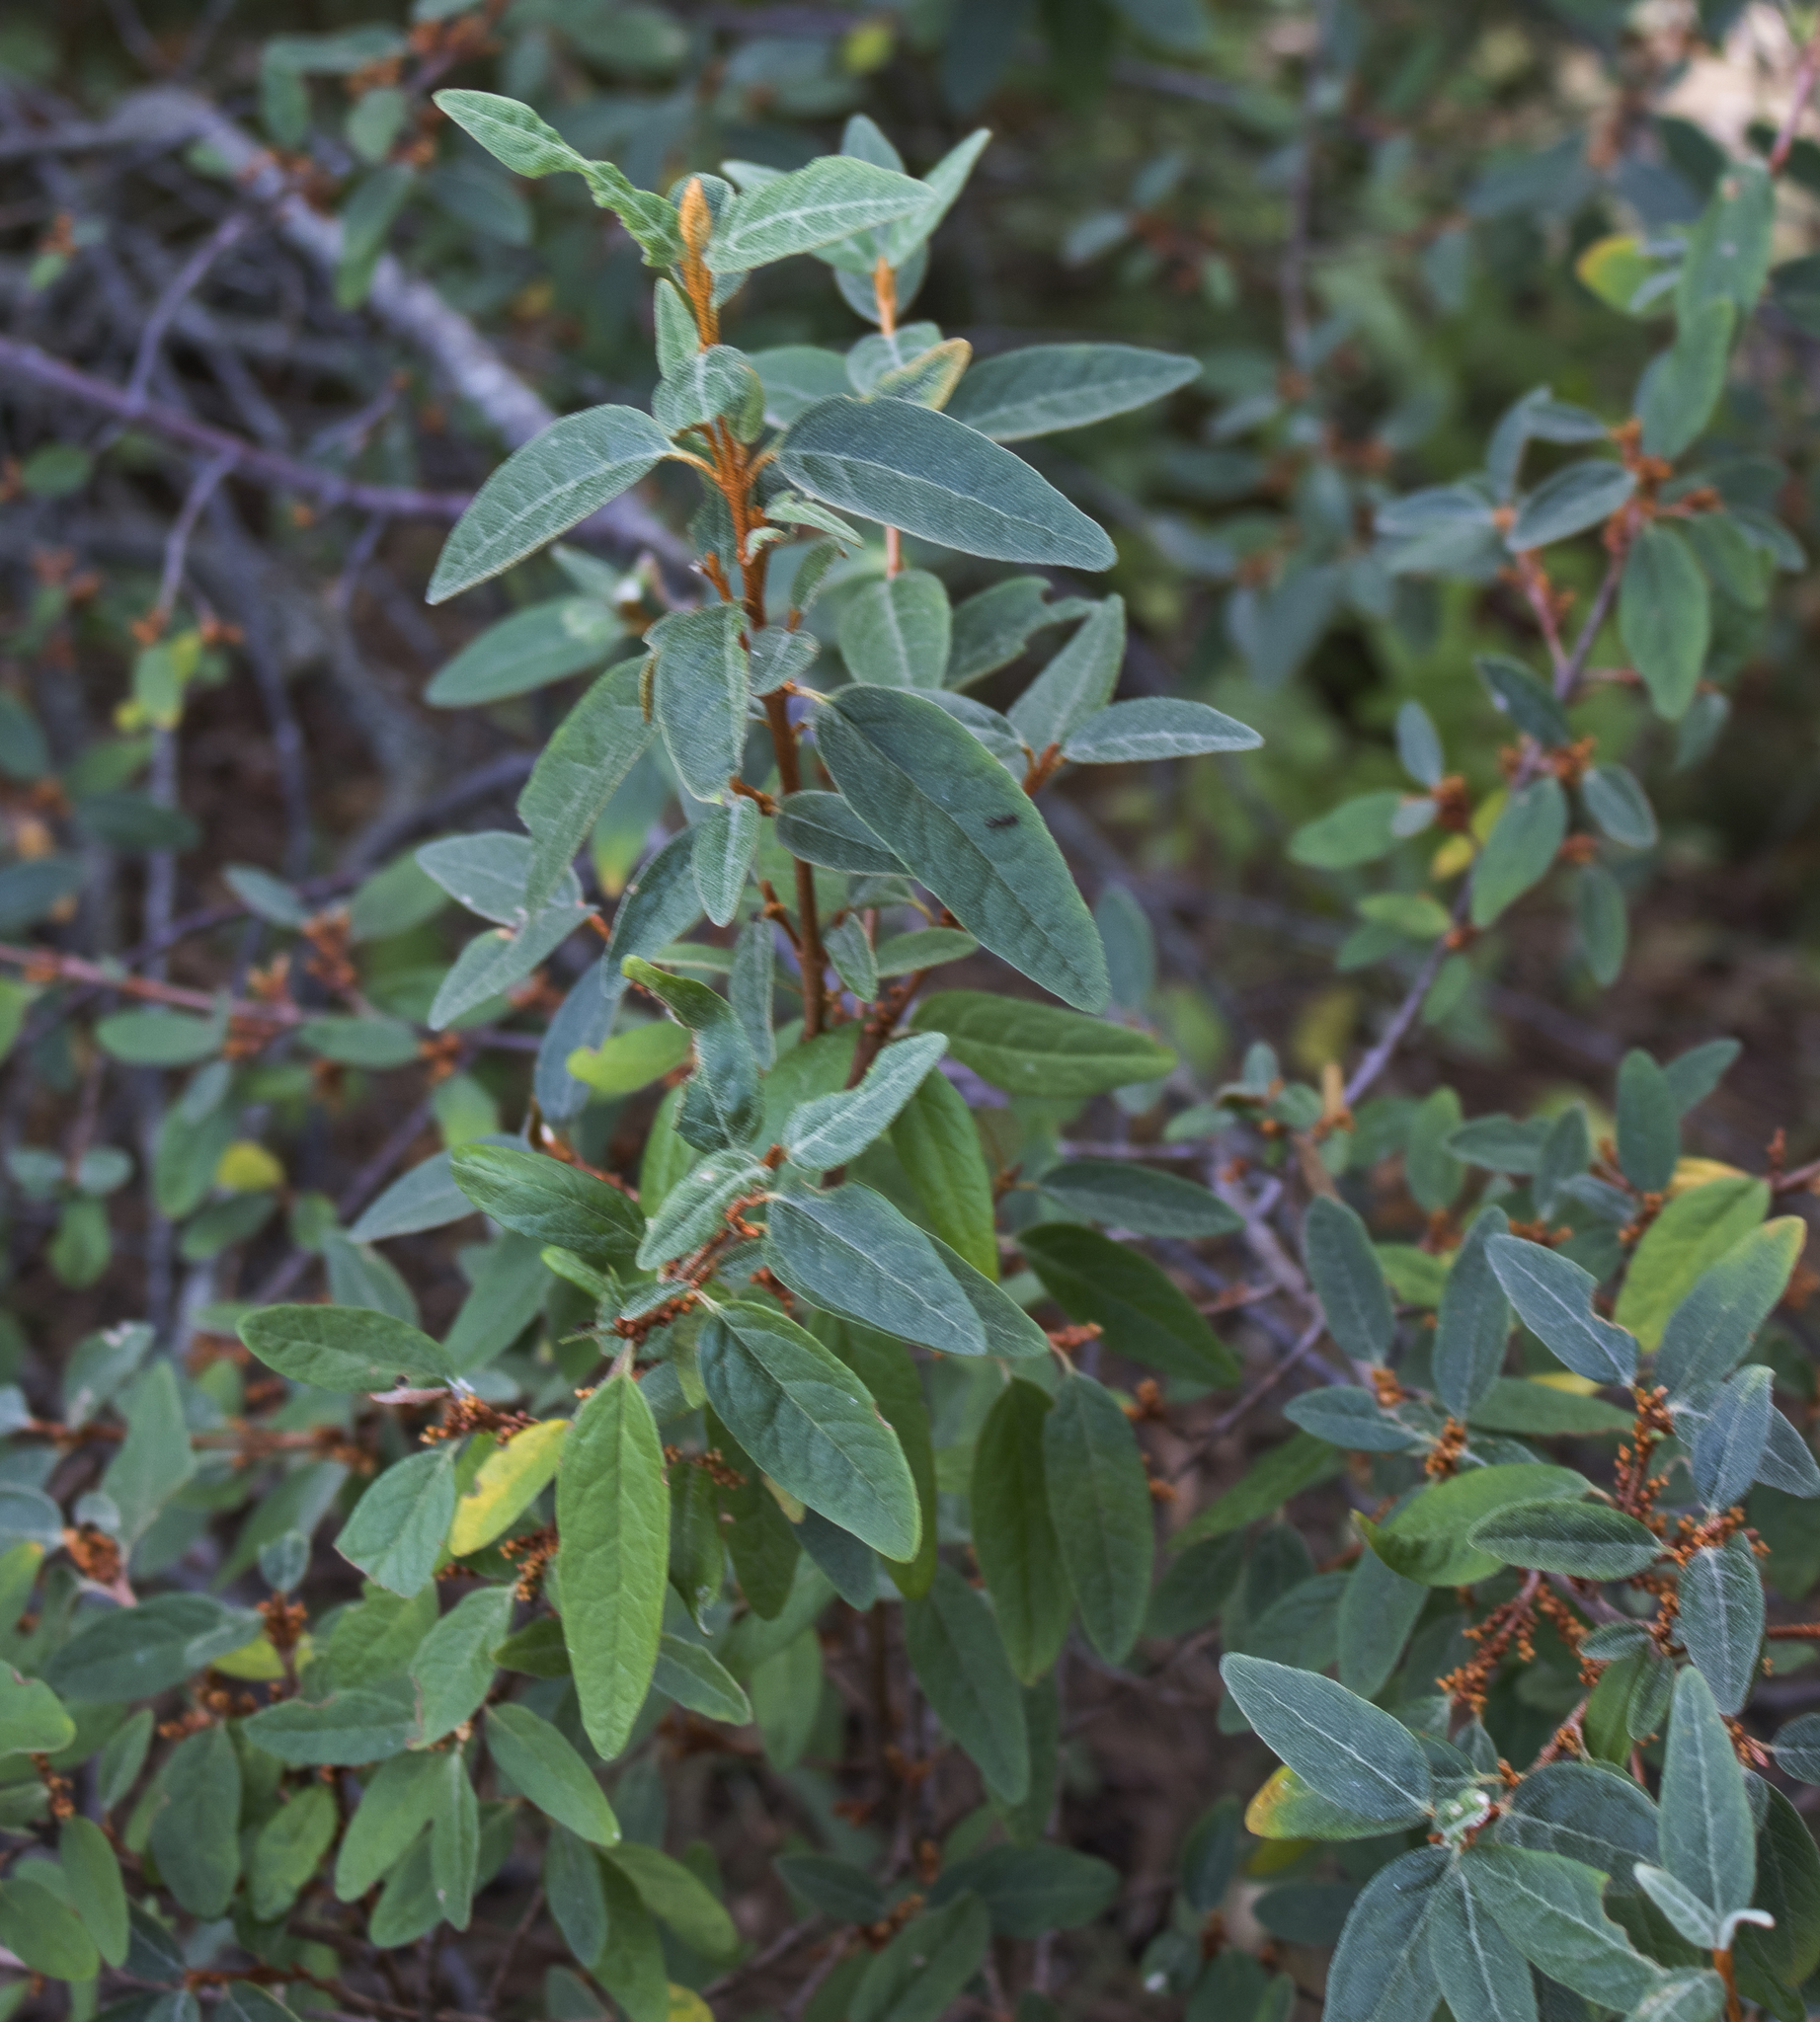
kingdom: Plantae
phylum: Tracheophyta
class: Magnoliopsida
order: Rosales
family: Elaeagnaceae
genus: Shepherdia
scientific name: Shepherdia canadensis
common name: Soapberry
